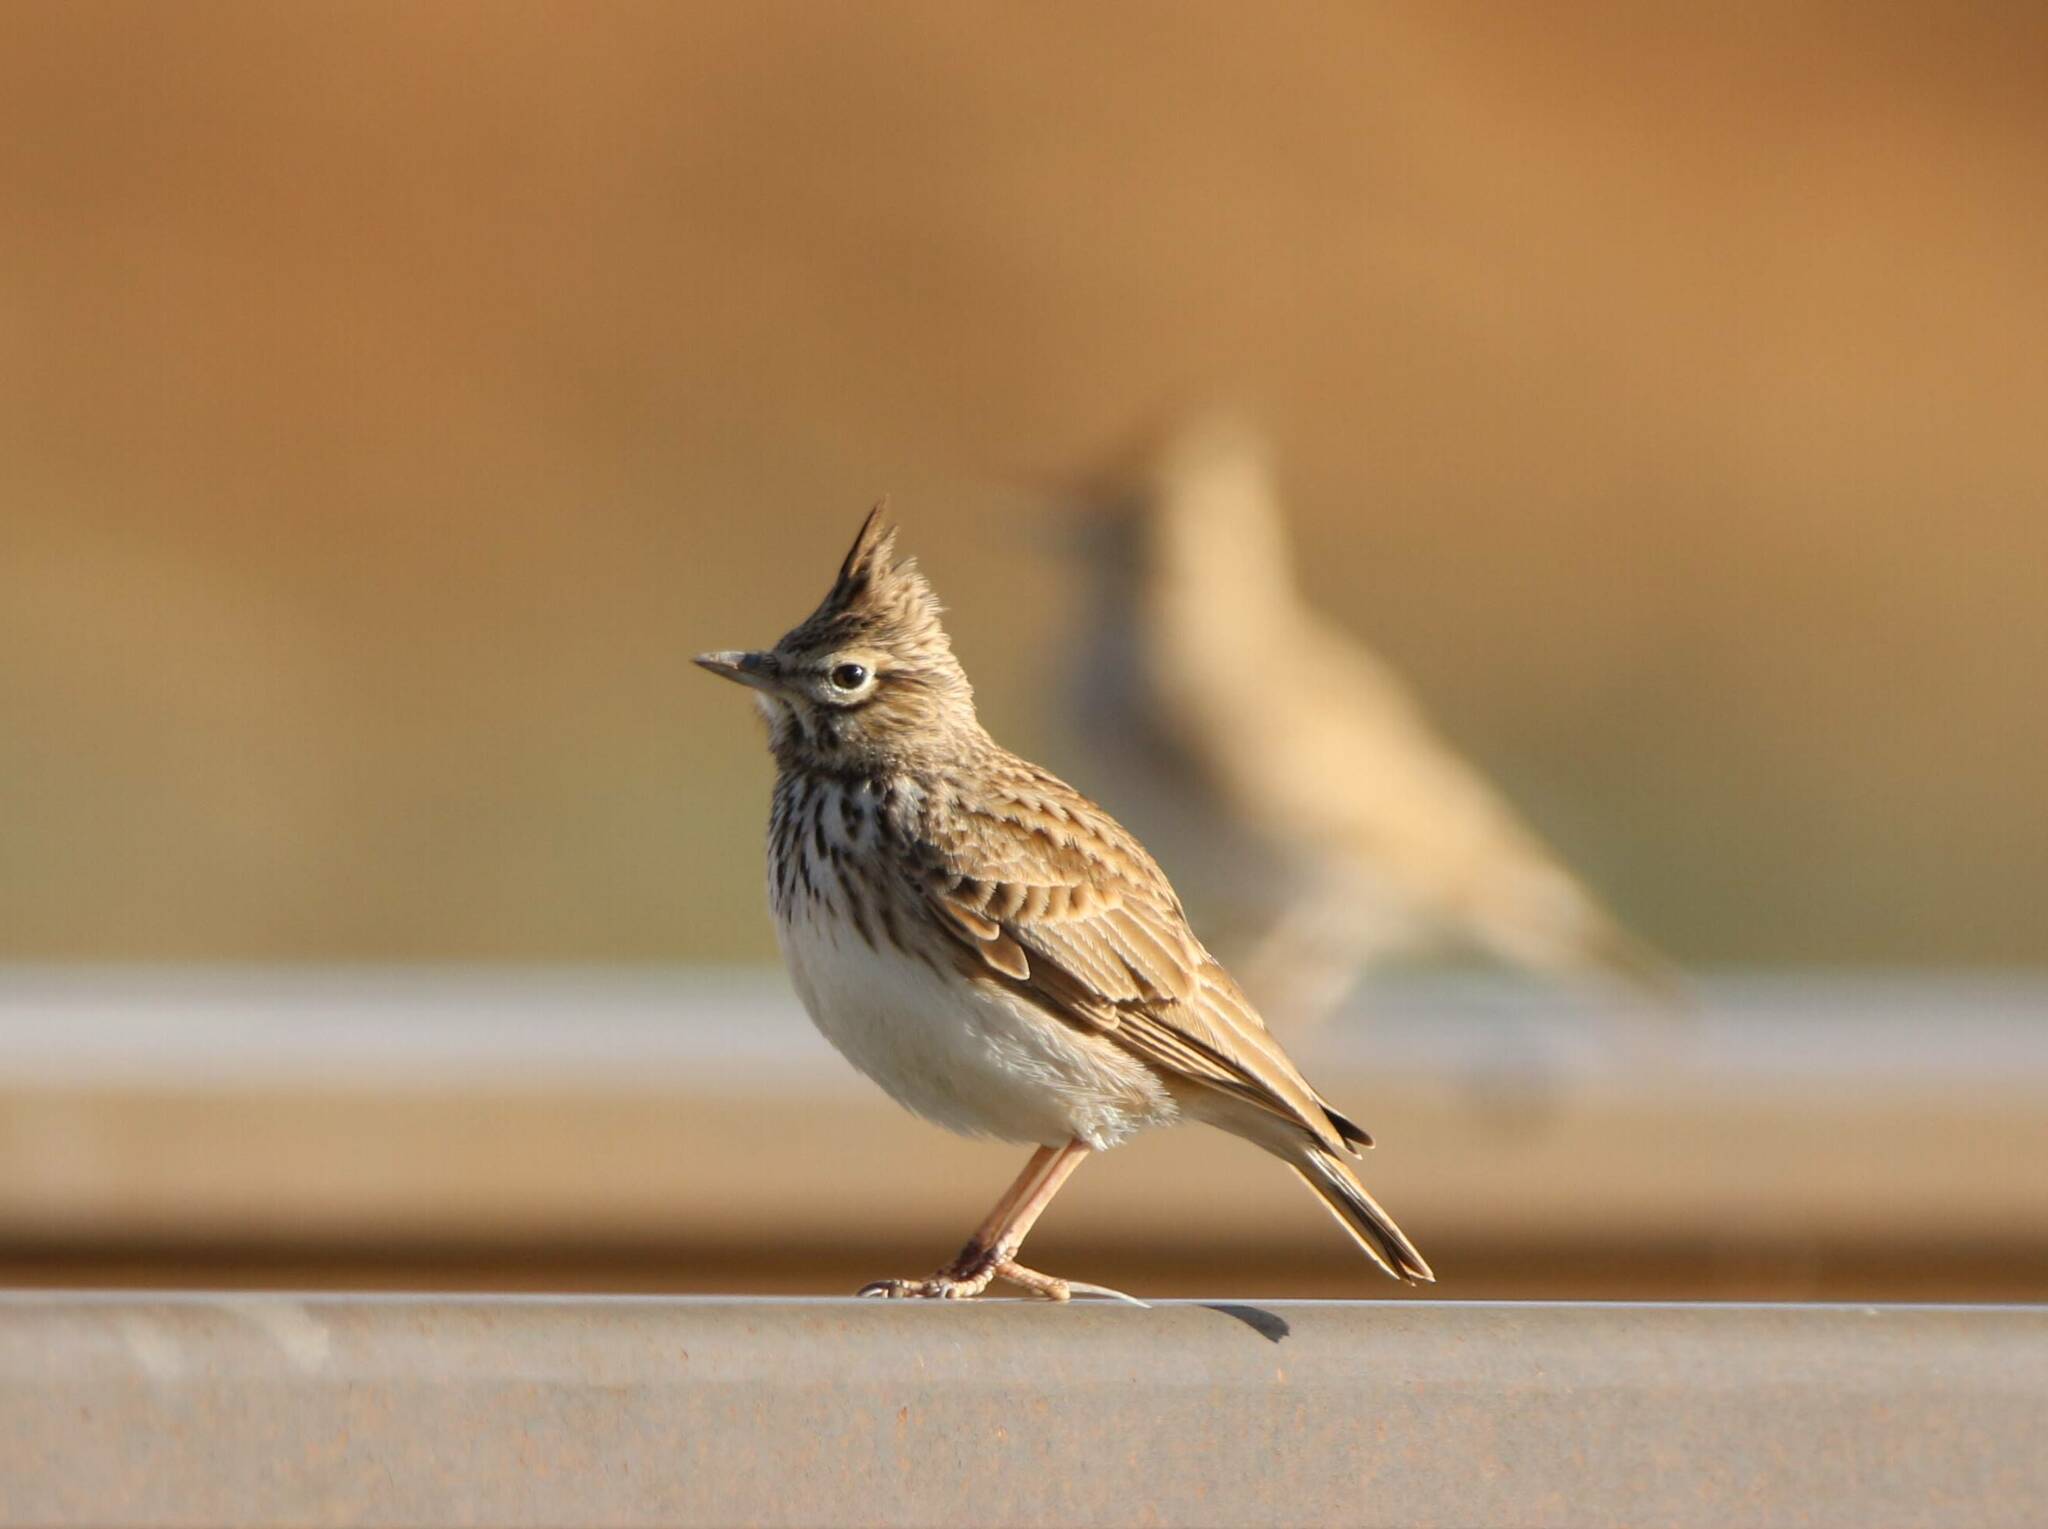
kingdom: Animalia
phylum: Chordata
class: Aves
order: Passeriformes
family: Alaudidae
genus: Galerida
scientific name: Galerida theklae
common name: Thekla lark
